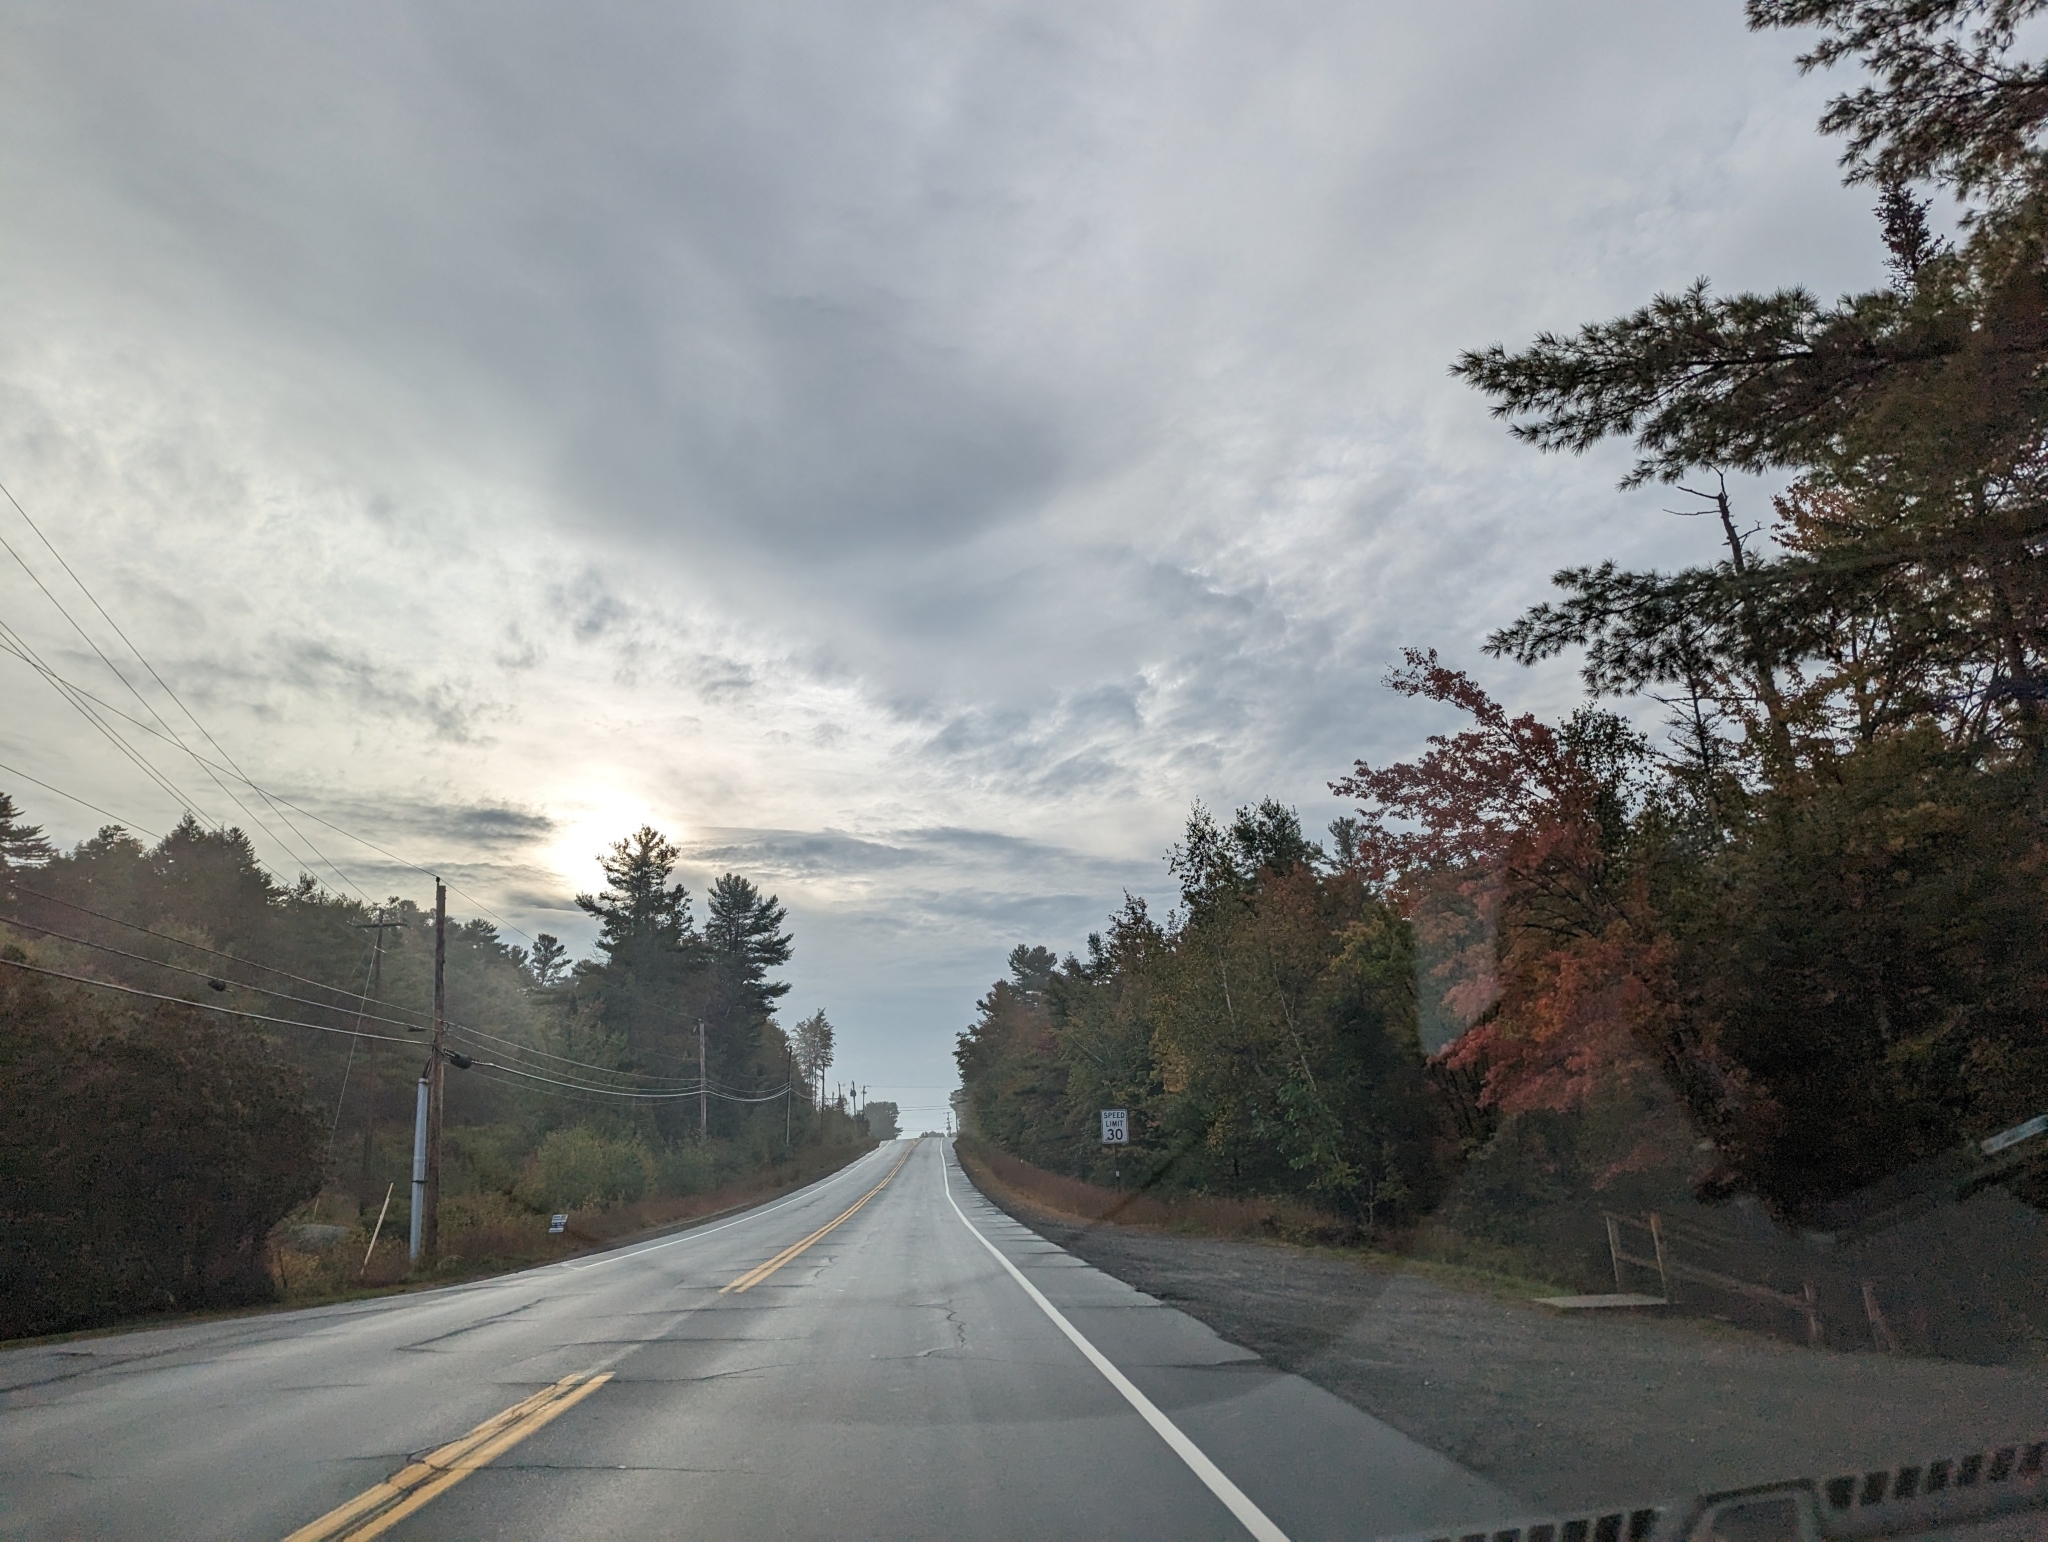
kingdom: Plantae
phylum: Tracheophyta
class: Pinopsida
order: Pinales
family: Pinaceae
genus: Pinus
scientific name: Pinus strobus
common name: Weymouth pine
